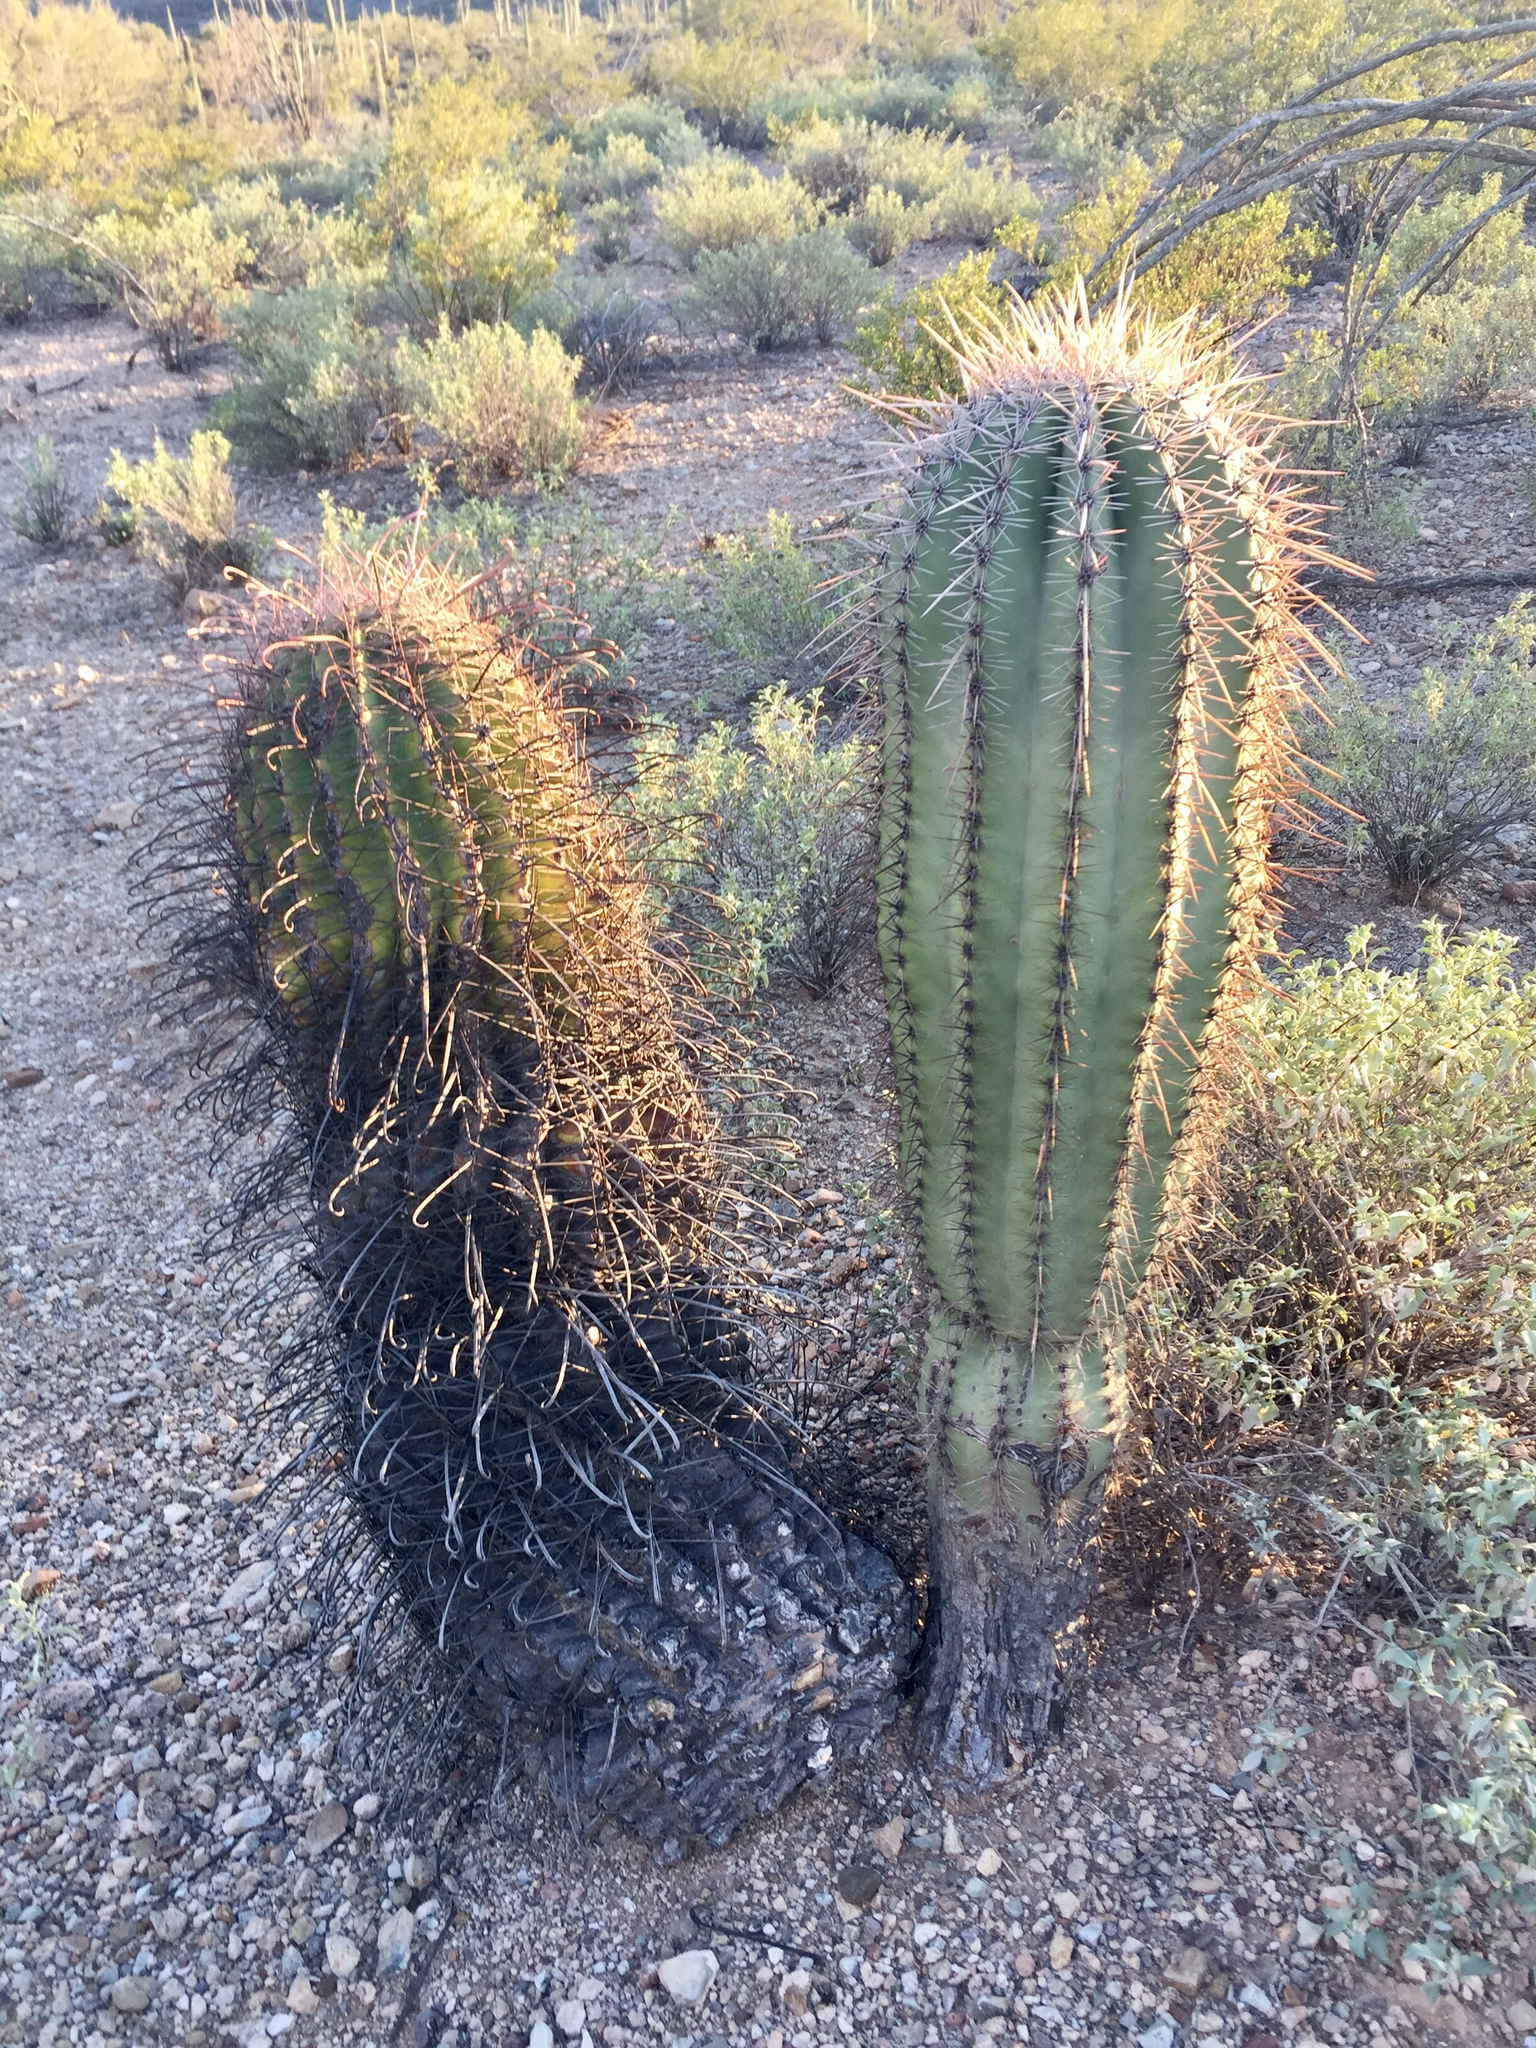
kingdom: Plantae
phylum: Tracheophyta
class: Magnoliopsida
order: Caryophyllales
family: Cactaceae
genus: Carnegiea
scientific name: Carnegiea gigantea
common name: Saguaro
